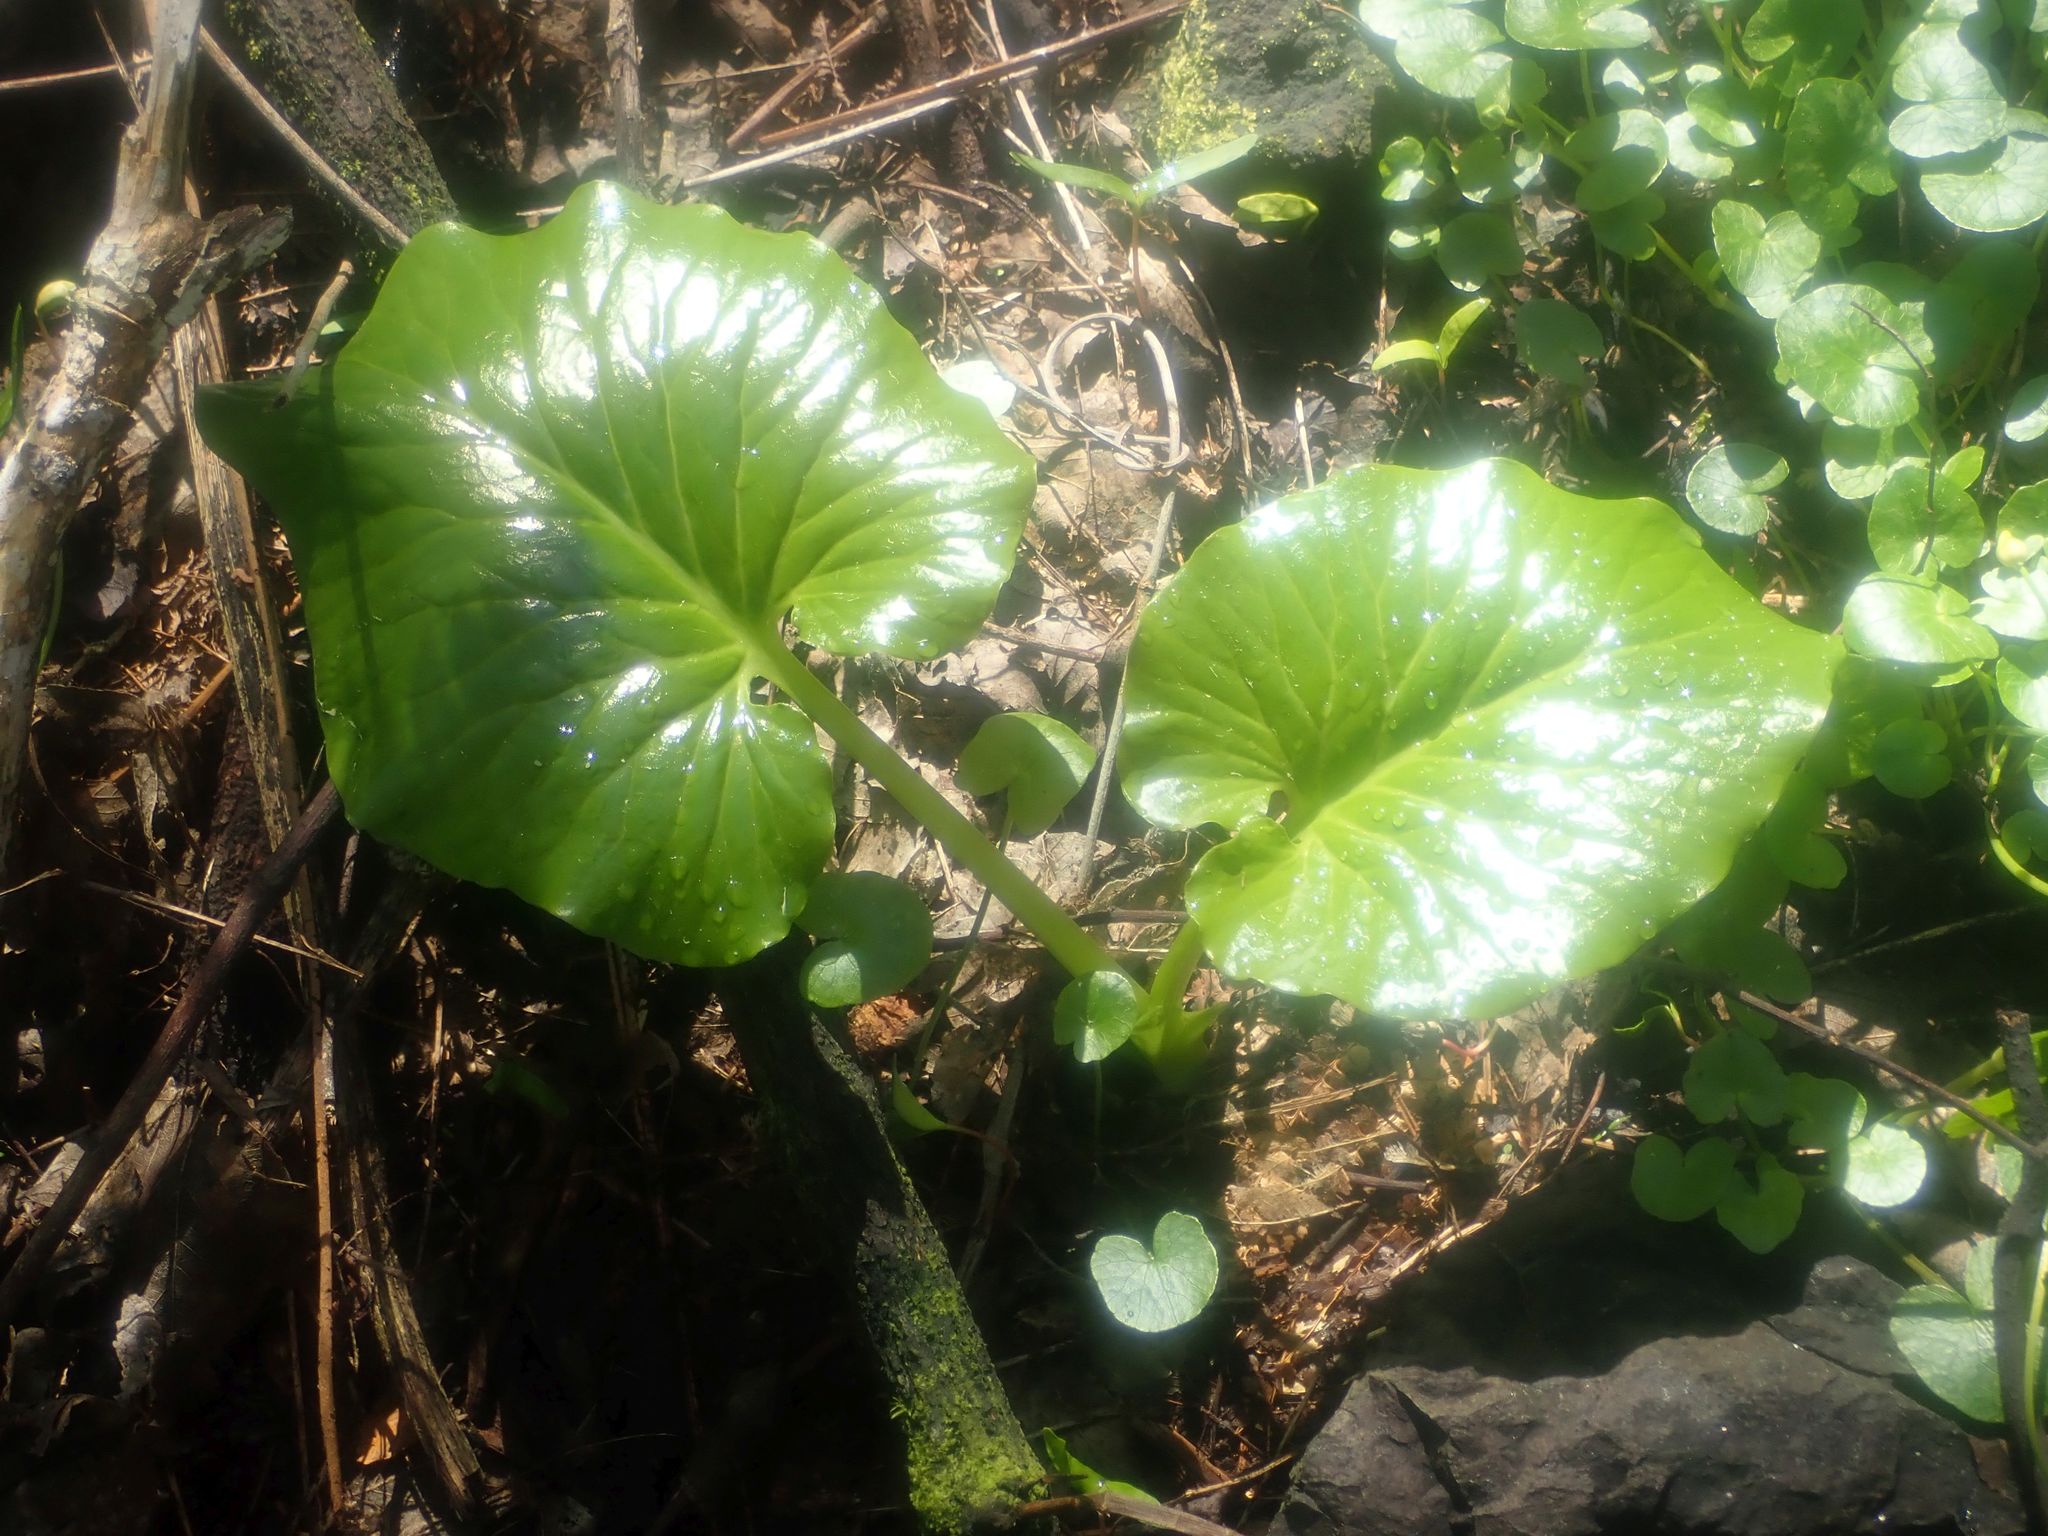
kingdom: Plantae
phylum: Tracheophyta
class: Liliopsida
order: Alismatales
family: Araceae
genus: Zantedeschia
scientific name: Zantedeschia aethiopica
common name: Altar-lily
